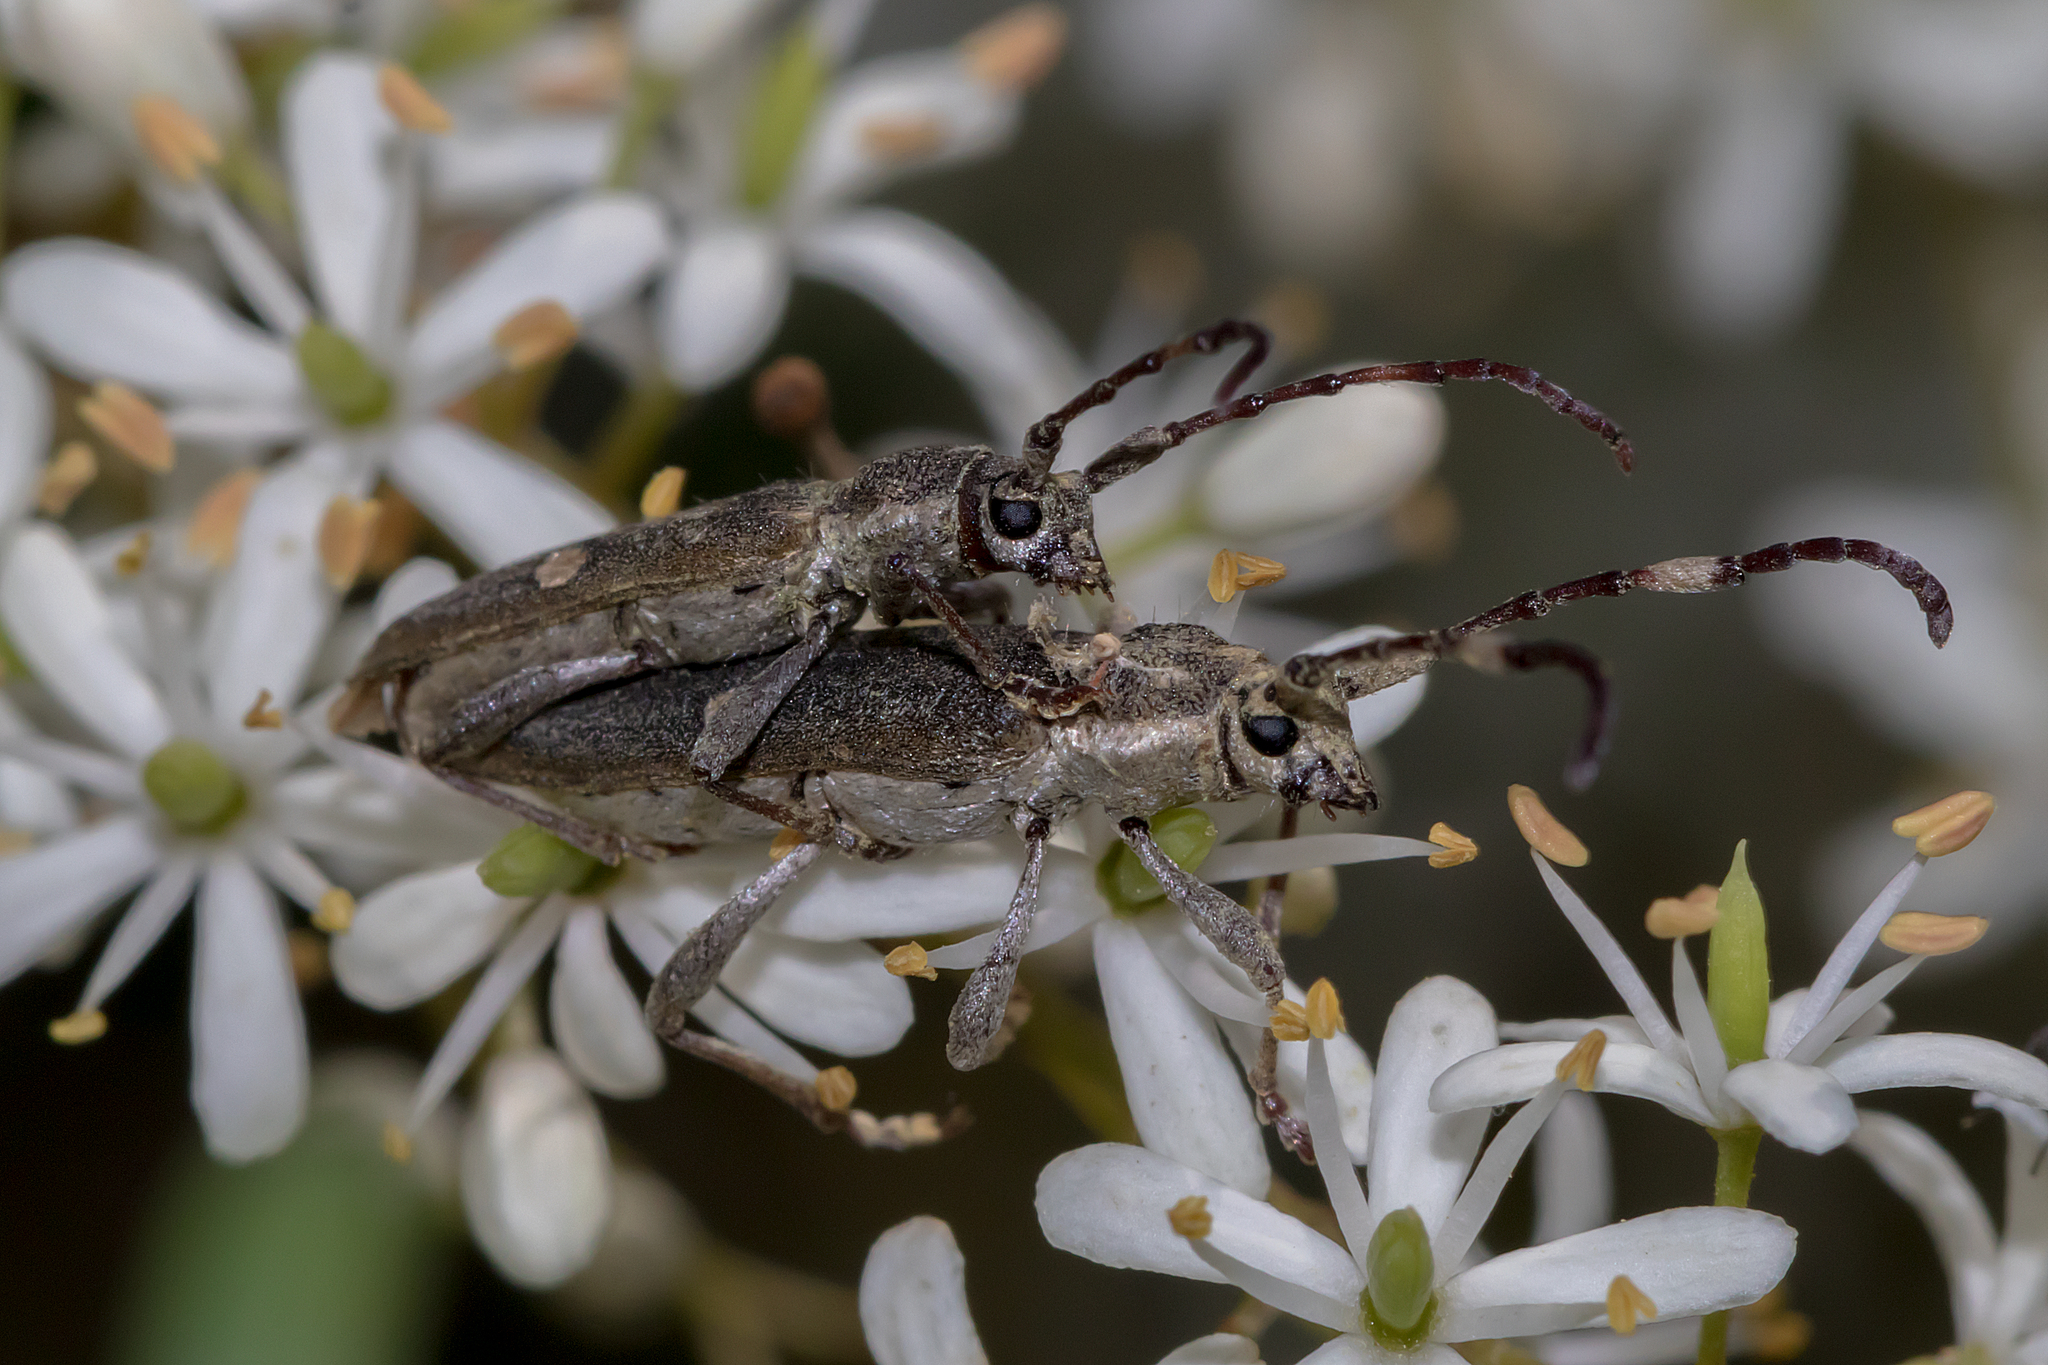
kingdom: Animalia
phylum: Arthropoda
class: Insecta
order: Coleoptera
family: Cerambycidae
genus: Pempsamacra
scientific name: Pempsamacra pygmaea
